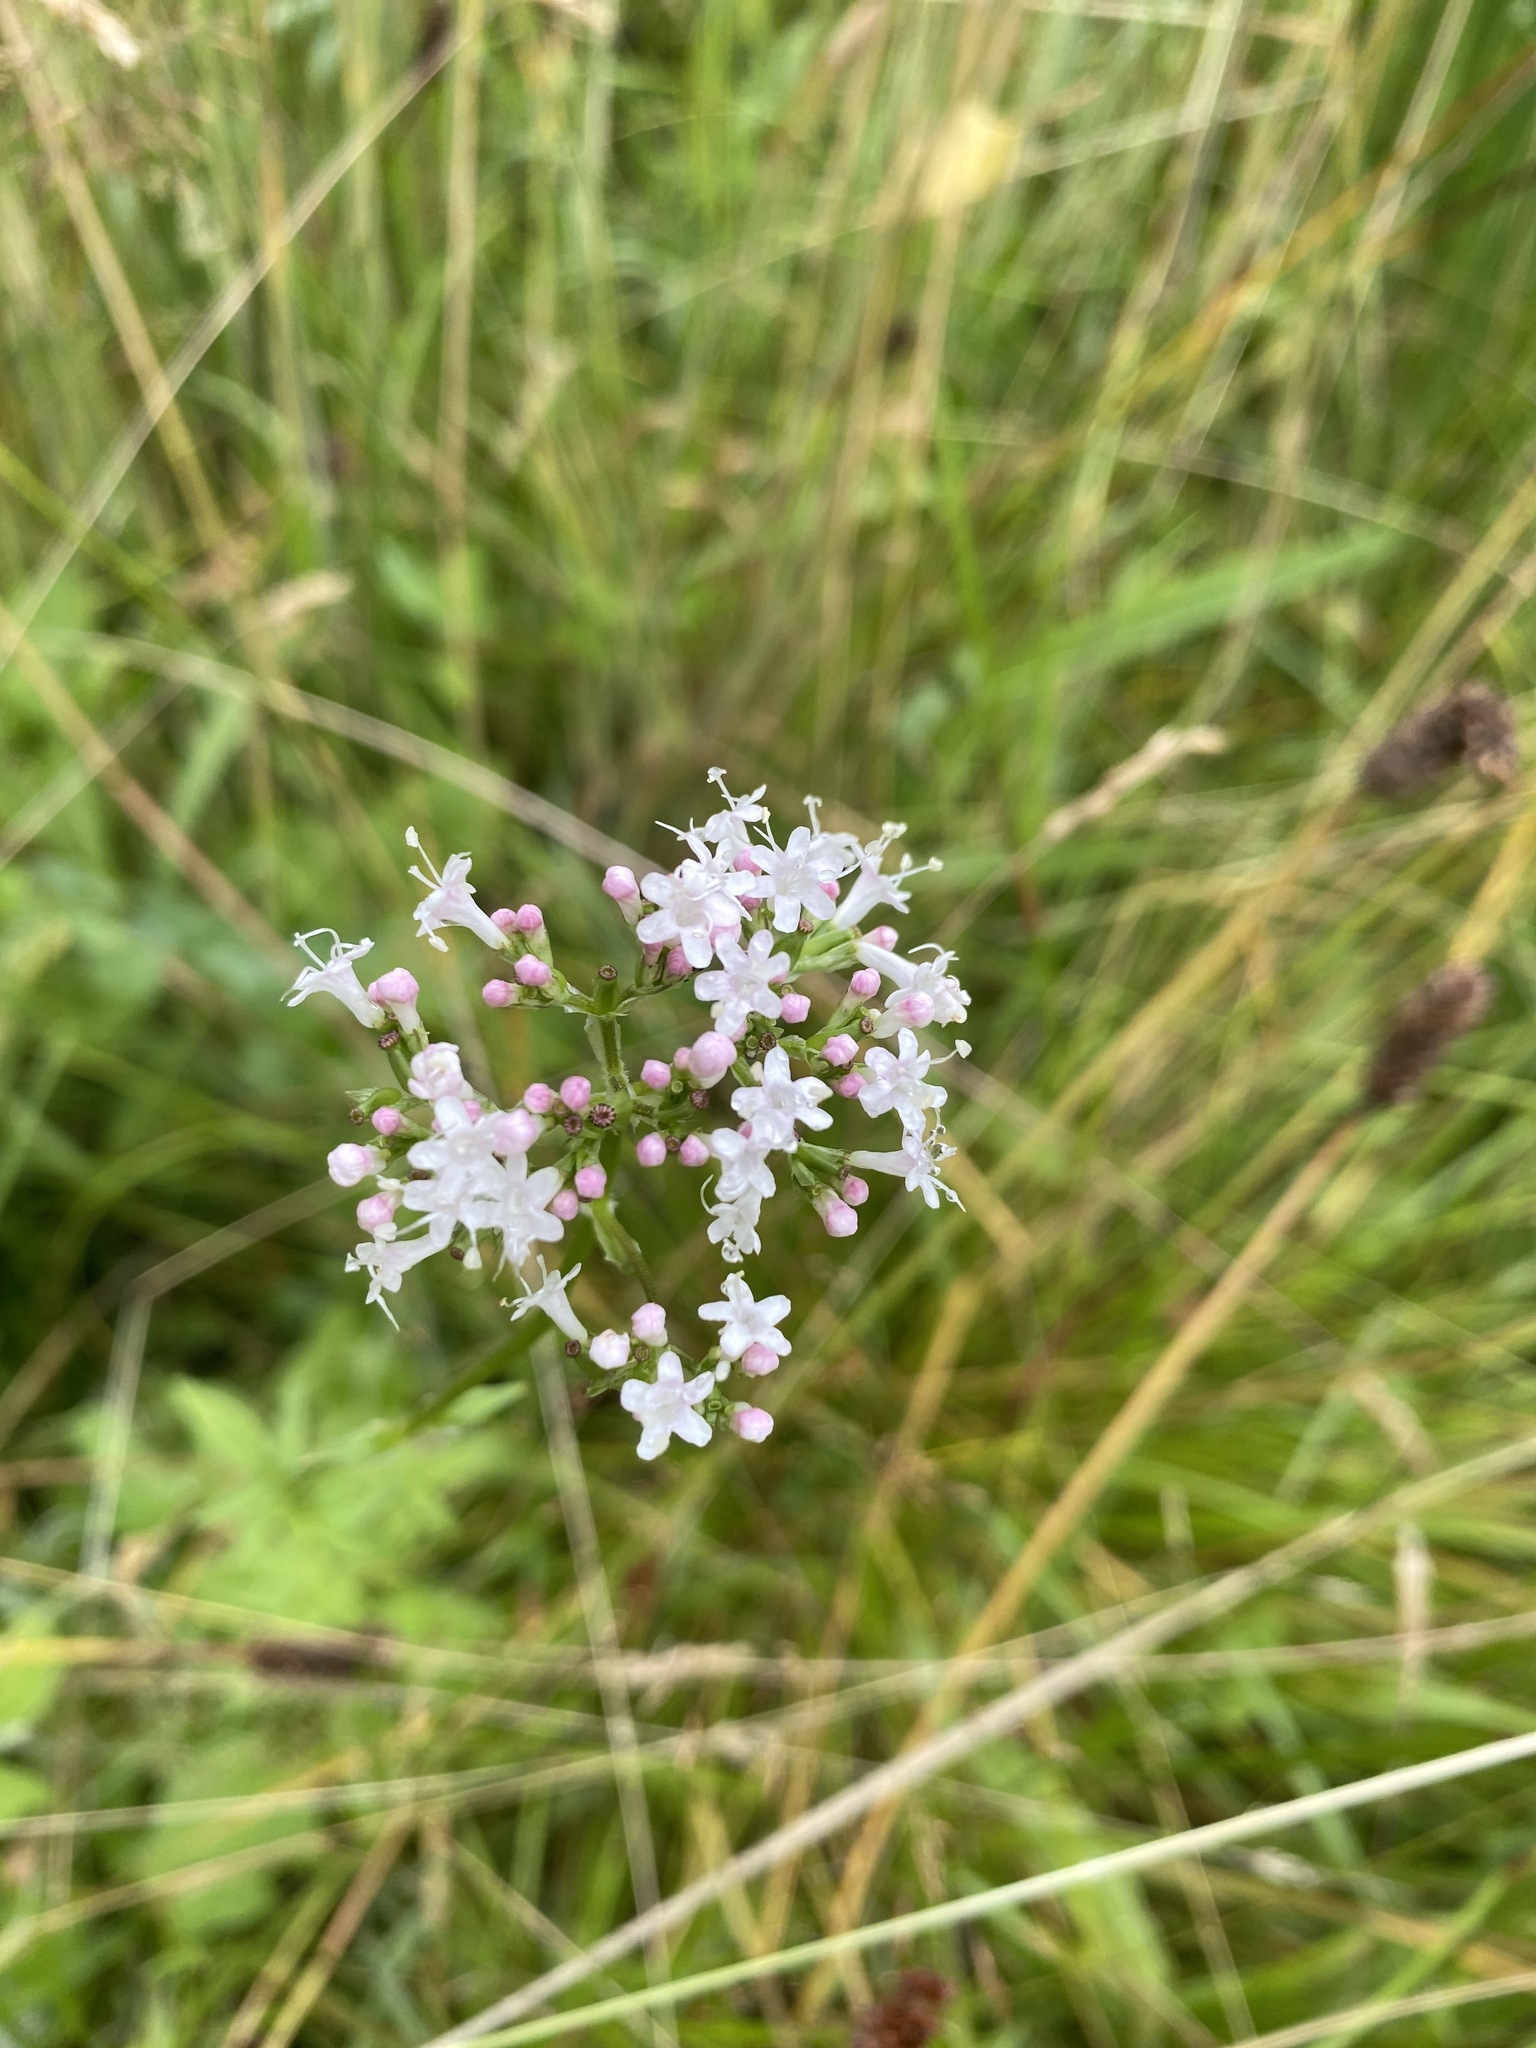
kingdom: Plantae
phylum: Tracheophyta
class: Magnoliopsida
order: Dipsacales
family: Caprifoliaceae
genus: Valeriana
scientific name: Valeriana officinalis
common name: Common valerian
